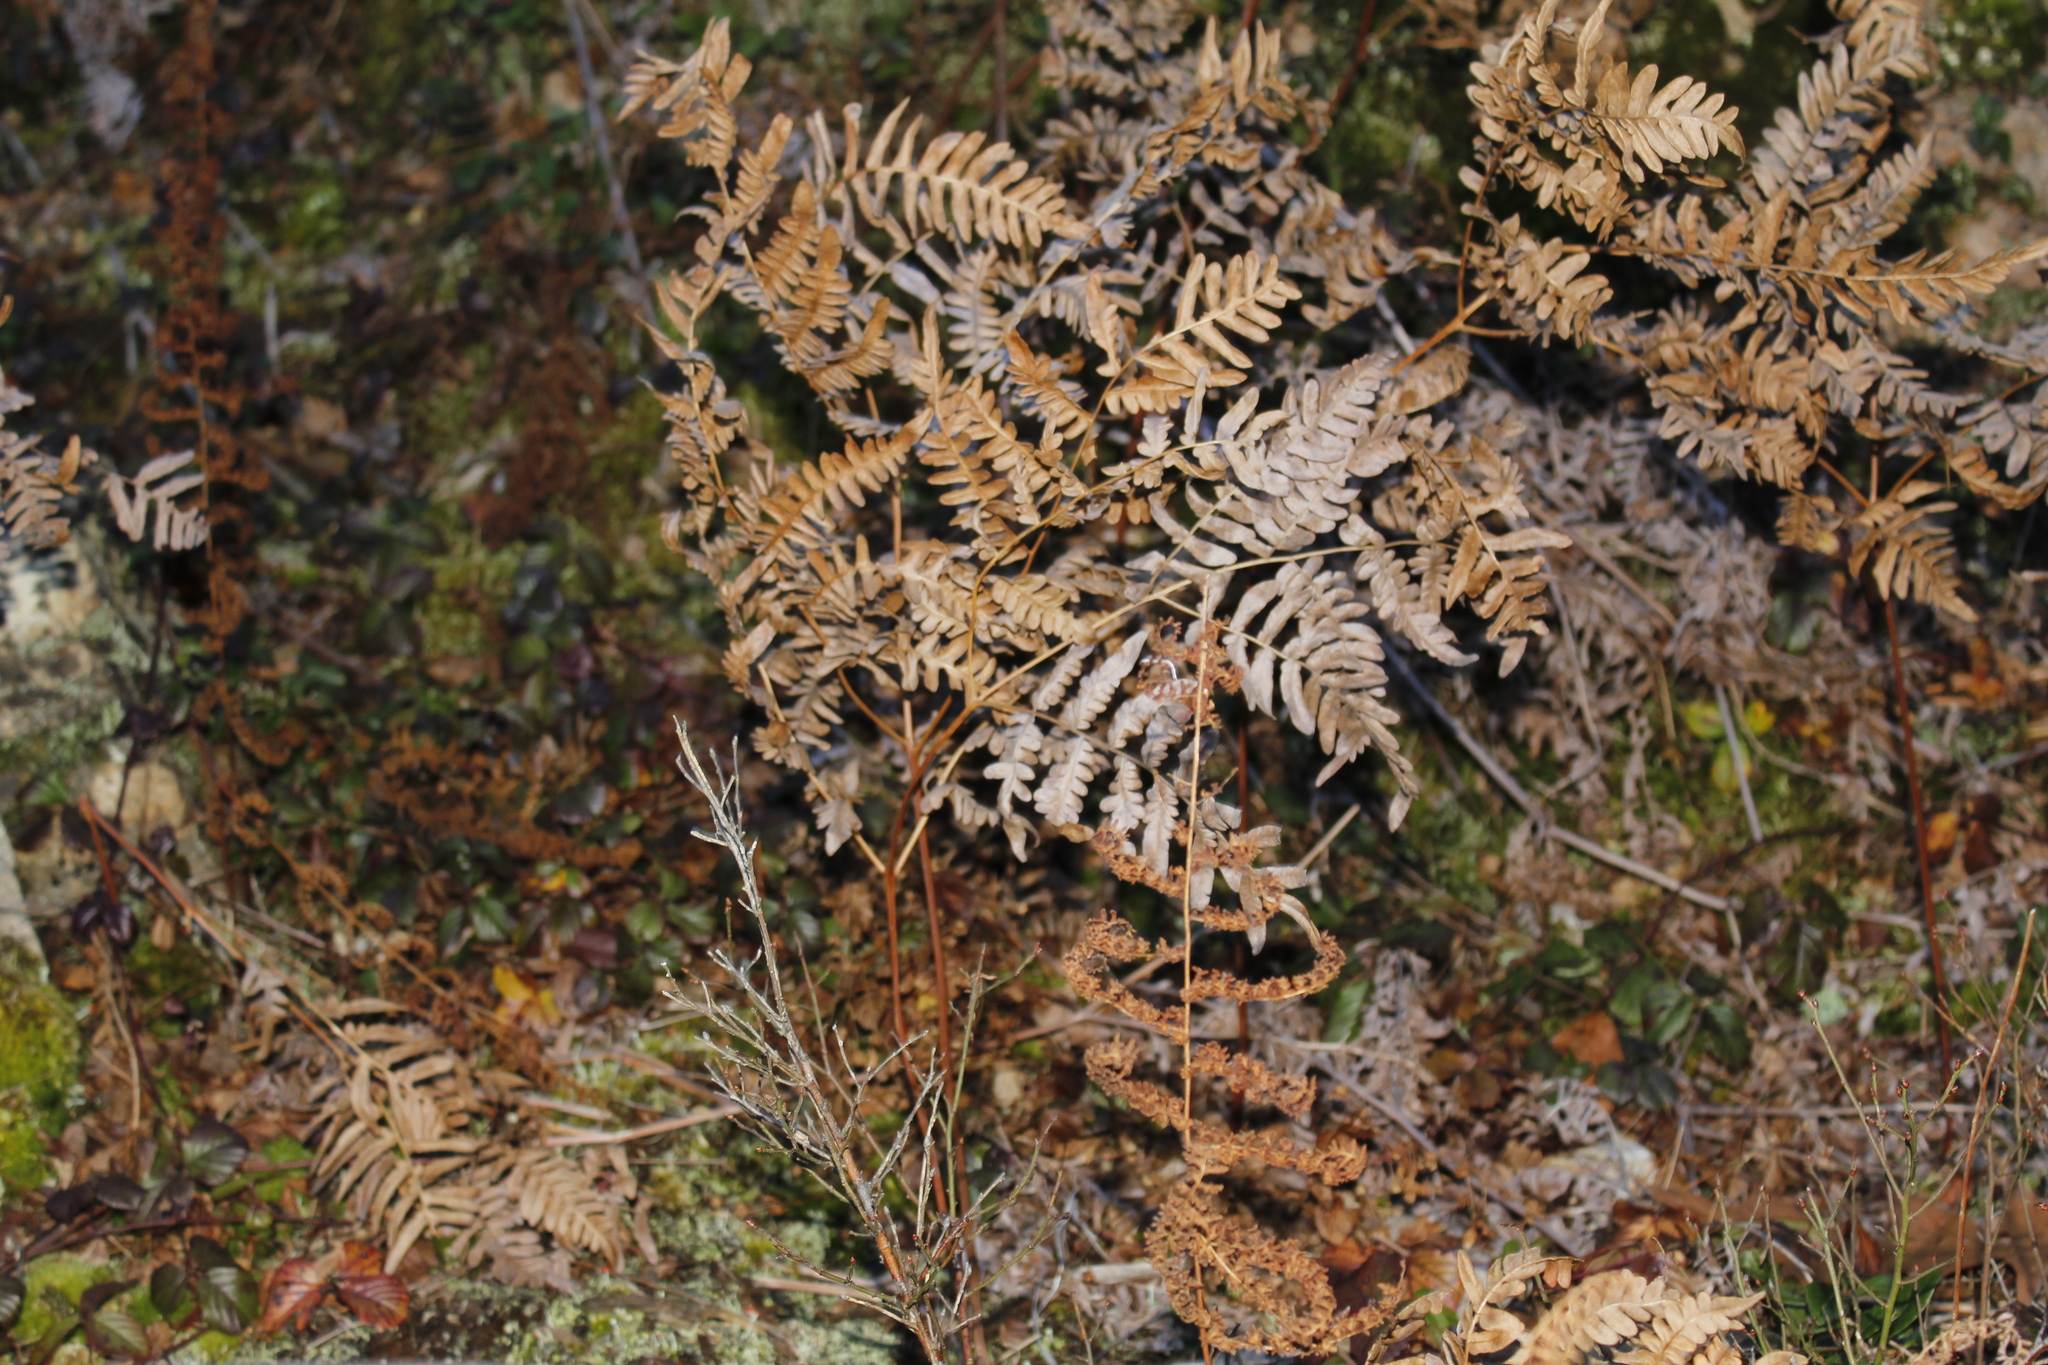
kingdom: Plantae
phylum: Tracheophyta
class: Polypodiopsida
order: Polypodiales
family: Dennstaedtiaceae
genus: Pteridium
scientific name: Pteridium aquilinum
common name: Bracken
